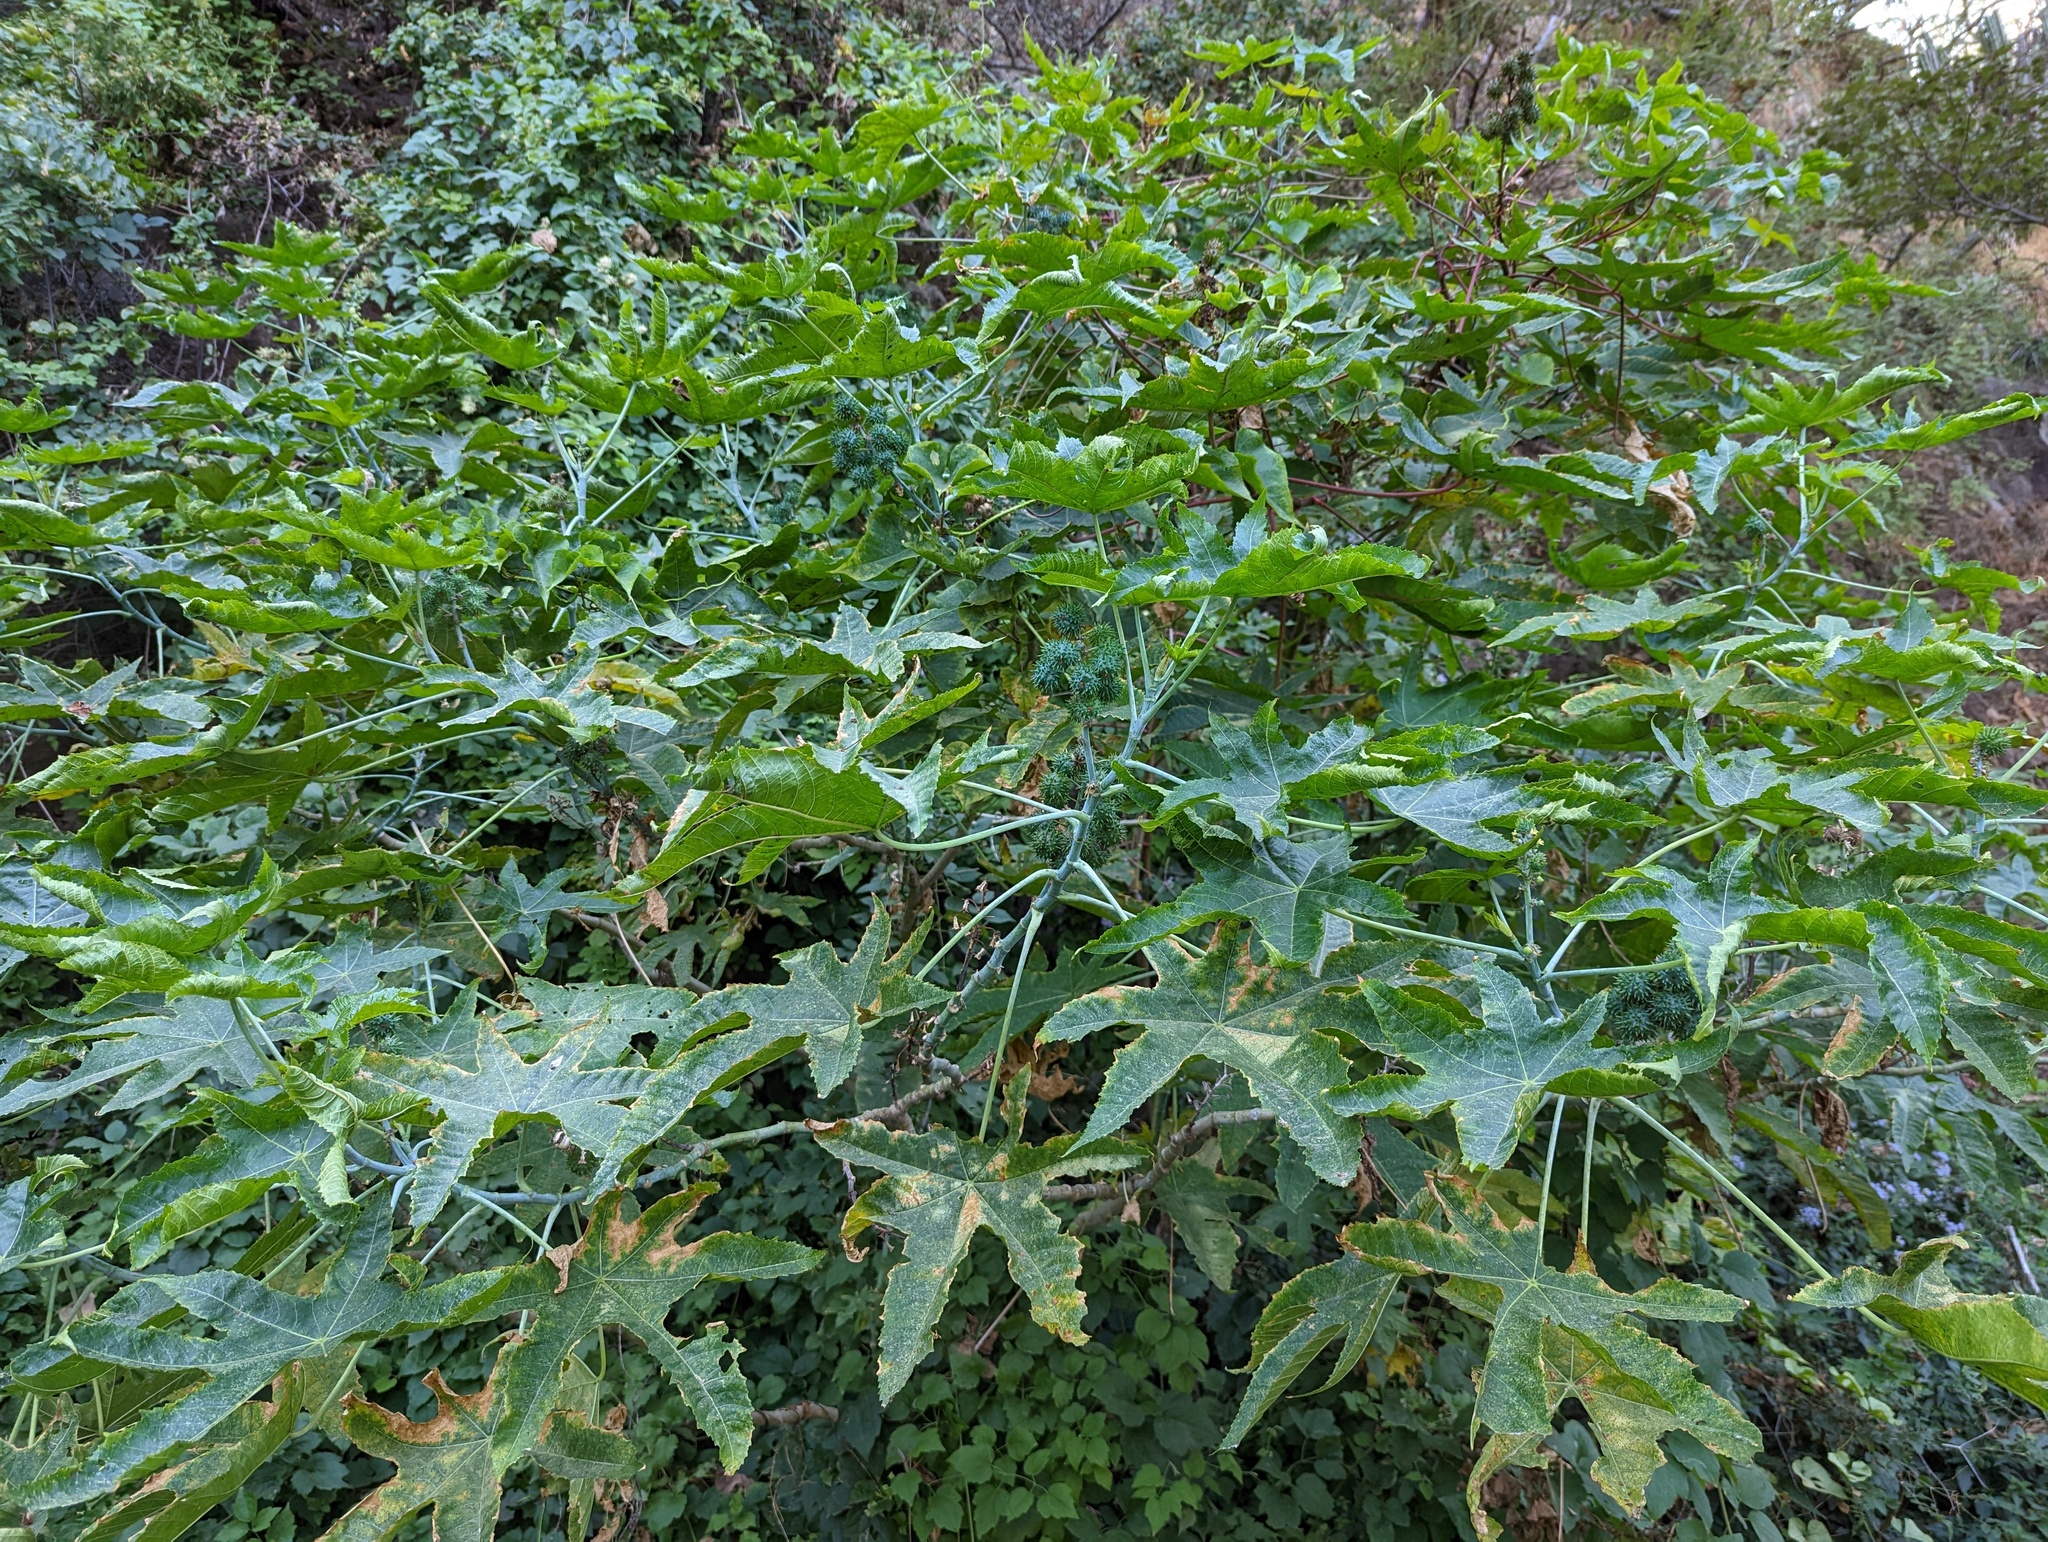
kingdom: Plantae
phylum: Tracheophyta
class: Magnoliopsida
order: Malpighiales
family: Euphorbiaceae
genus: Ricinus
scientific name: Ricinus communis
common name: Castor-oil-plant
